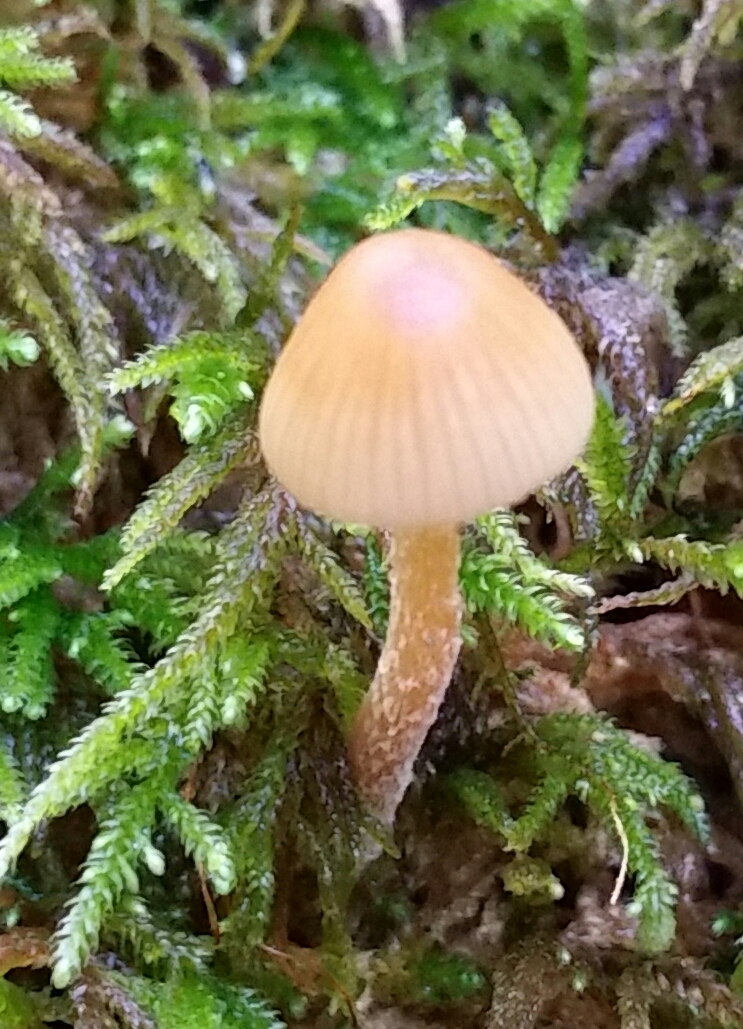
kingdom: Fungi
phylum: Basidiomycota
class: Agaricomycetes
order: Agaricales
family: Hymenogastraceae
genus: Galerina
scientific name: Galerina semilanceata
